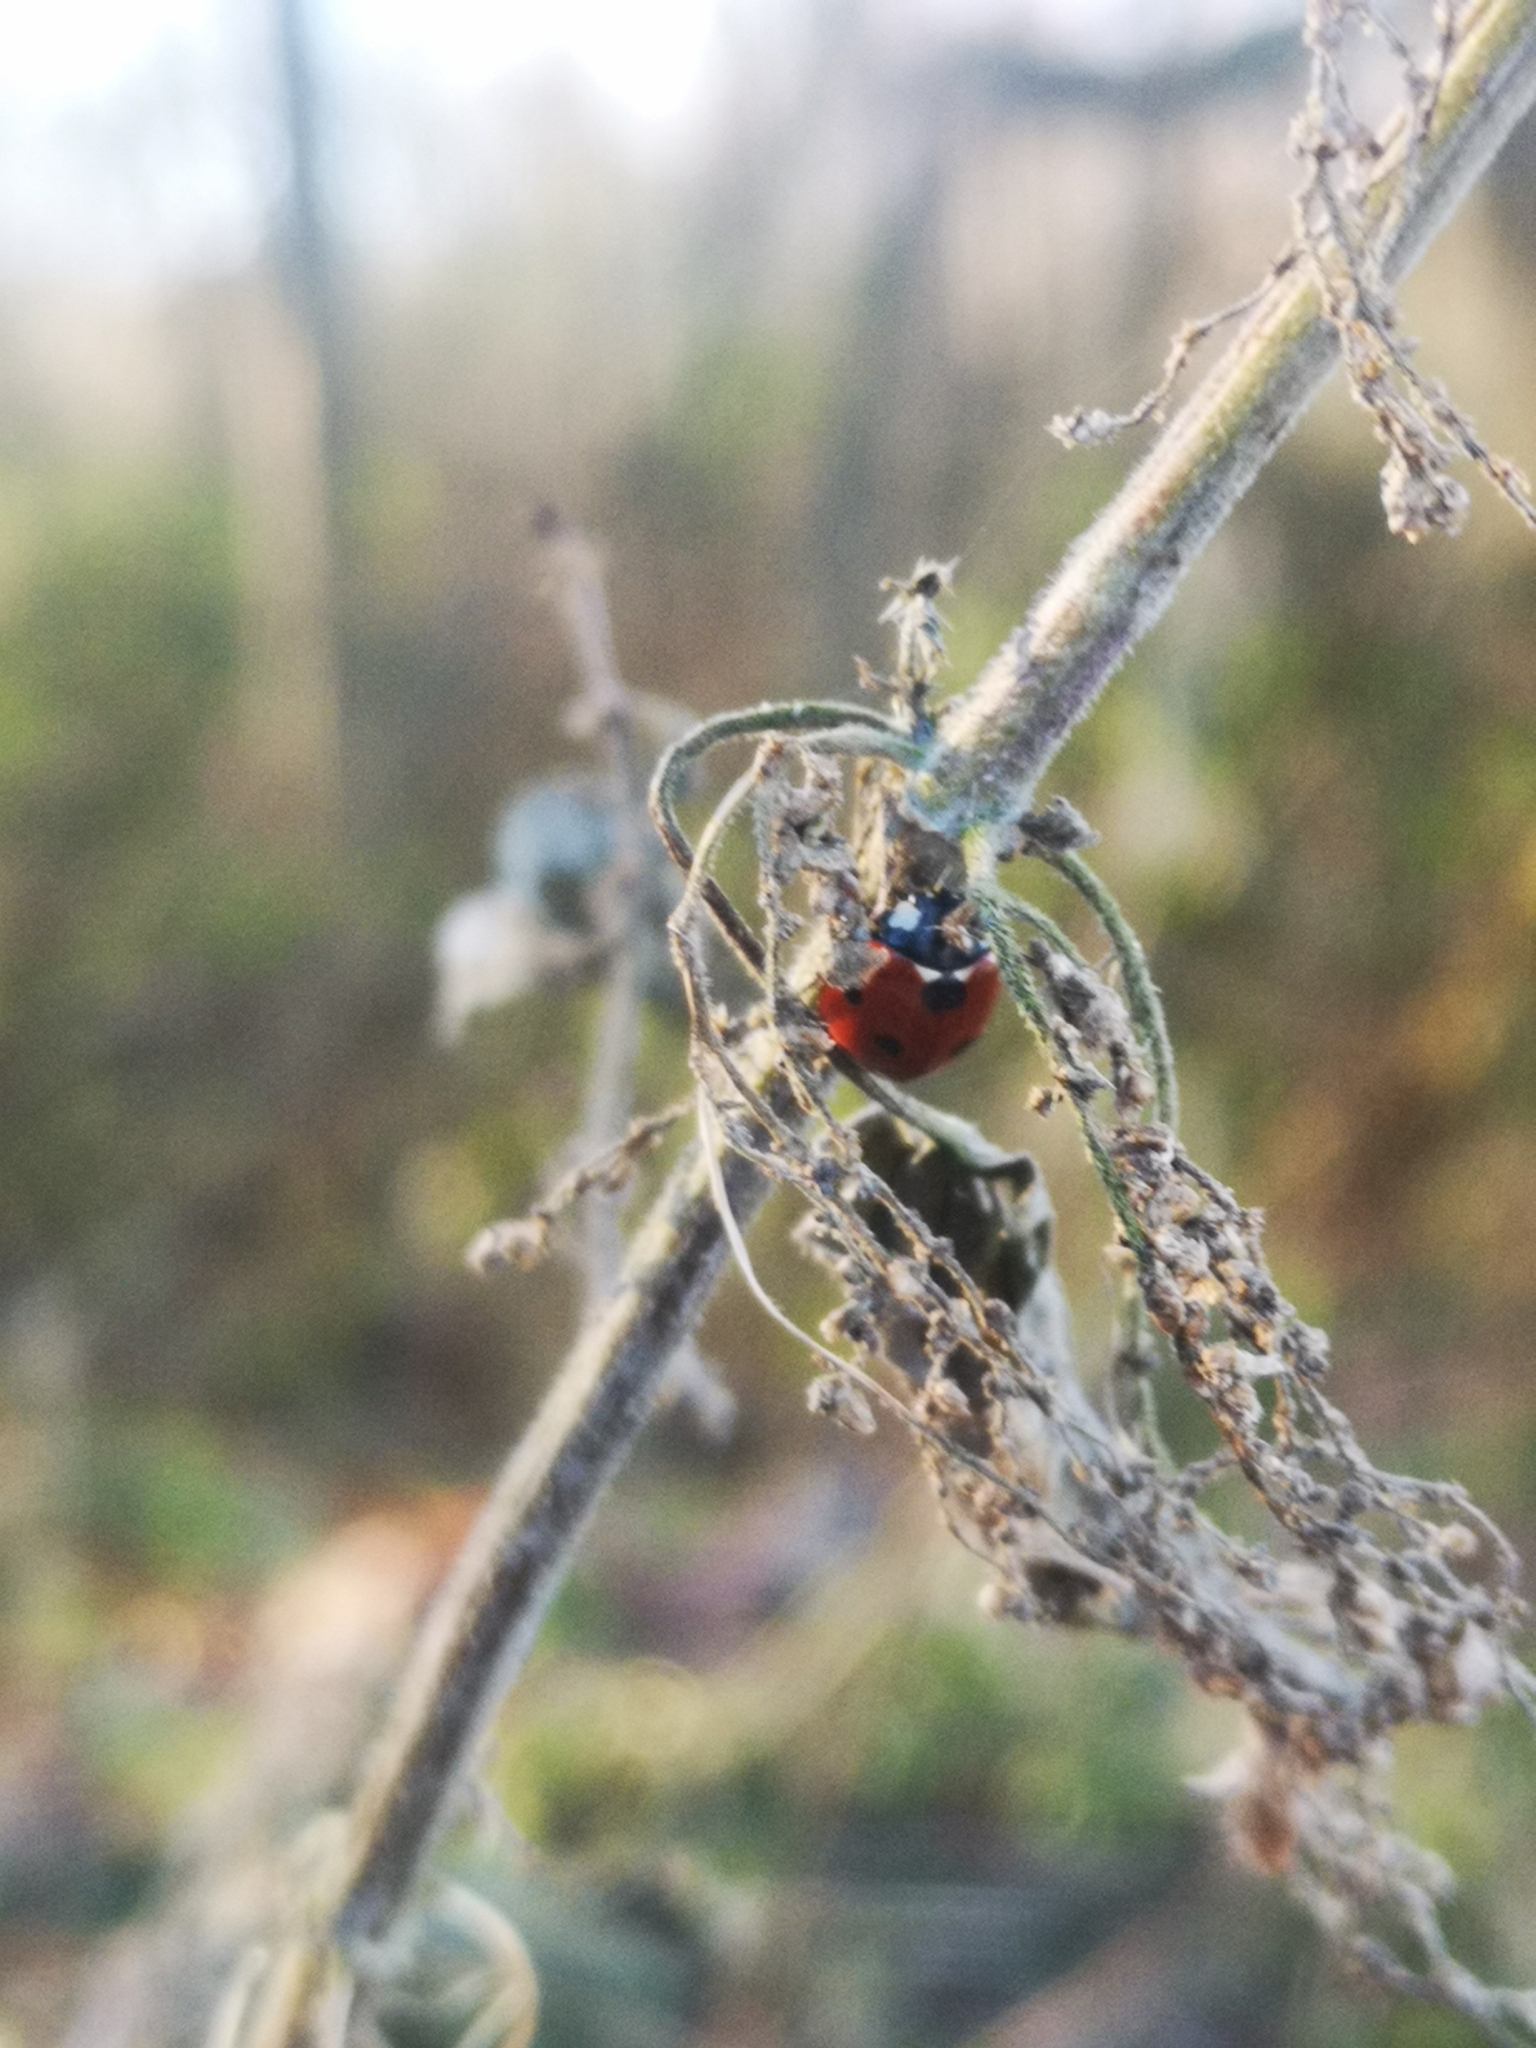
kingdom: Animalia
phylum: Arthropoda
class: Insecta
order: Coleoptera
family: Coccinellidae
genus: Coccinella
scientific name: Coccinella septempunctata
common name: Sevenspotted lady beetle
